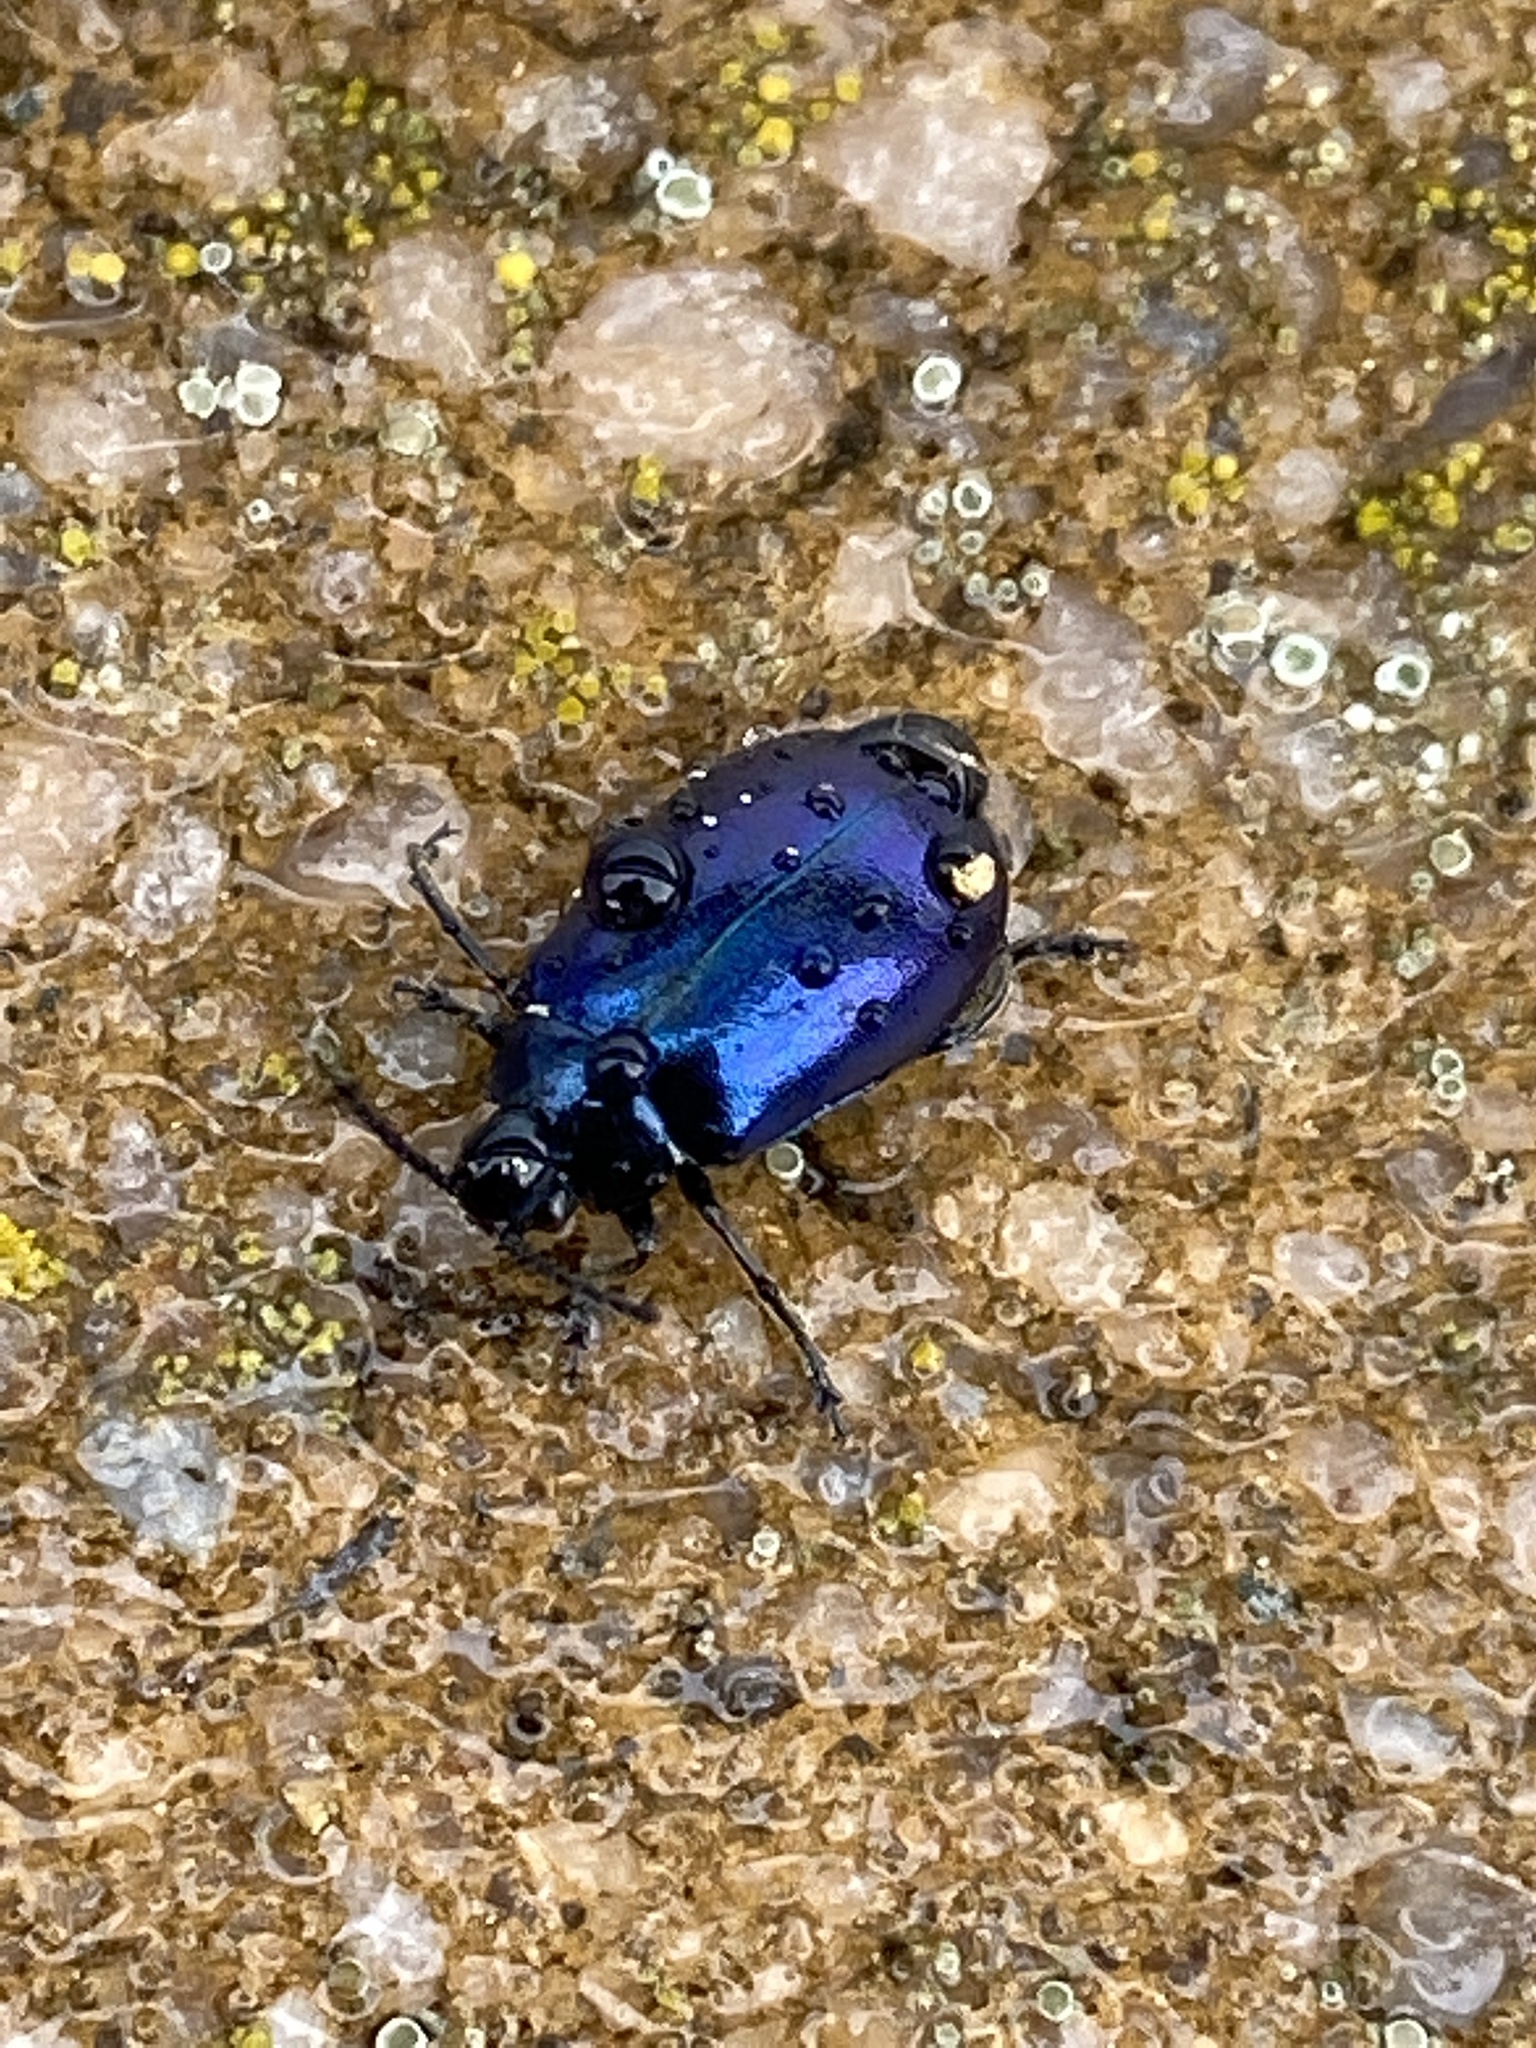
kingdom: Animalia
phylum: Arthropoda
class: Insecta
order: Coleoptera
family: Chrysomelidae
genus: Agelastica
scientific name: Agelastica alni
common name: Alder leaf beetle
